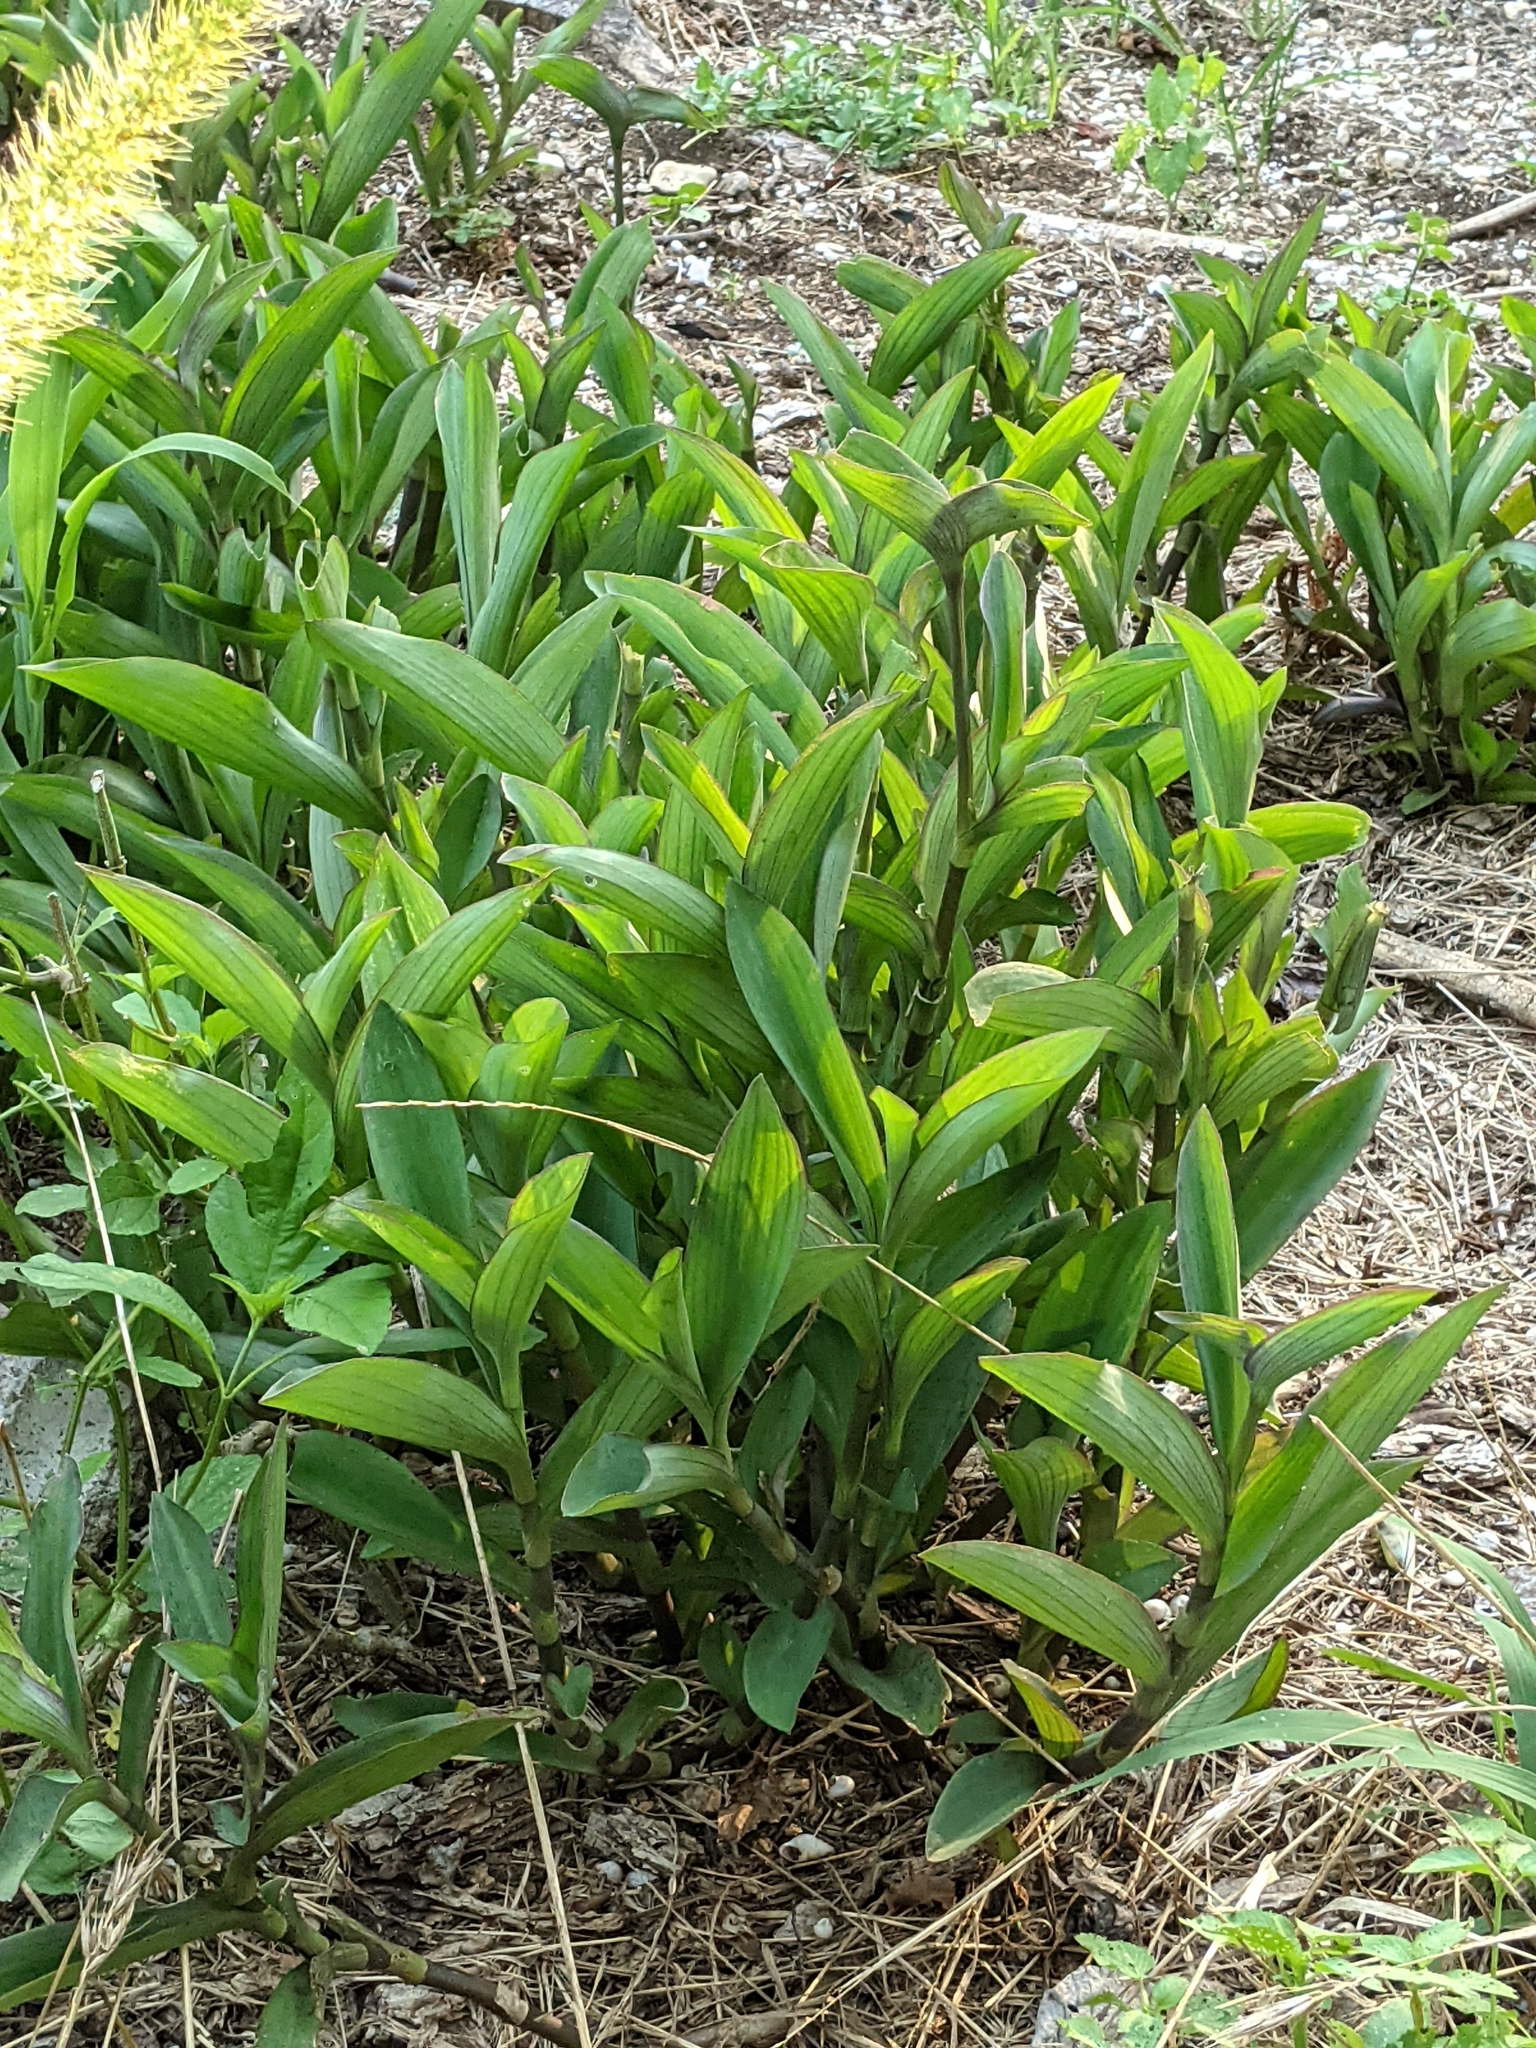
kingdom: Plantae
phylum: Tracheophyta
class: Liliopsida
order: Commelinales
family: Commelinaceae
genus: Tradescantia
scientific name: Tradescantia pallida
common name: Purpleheart
